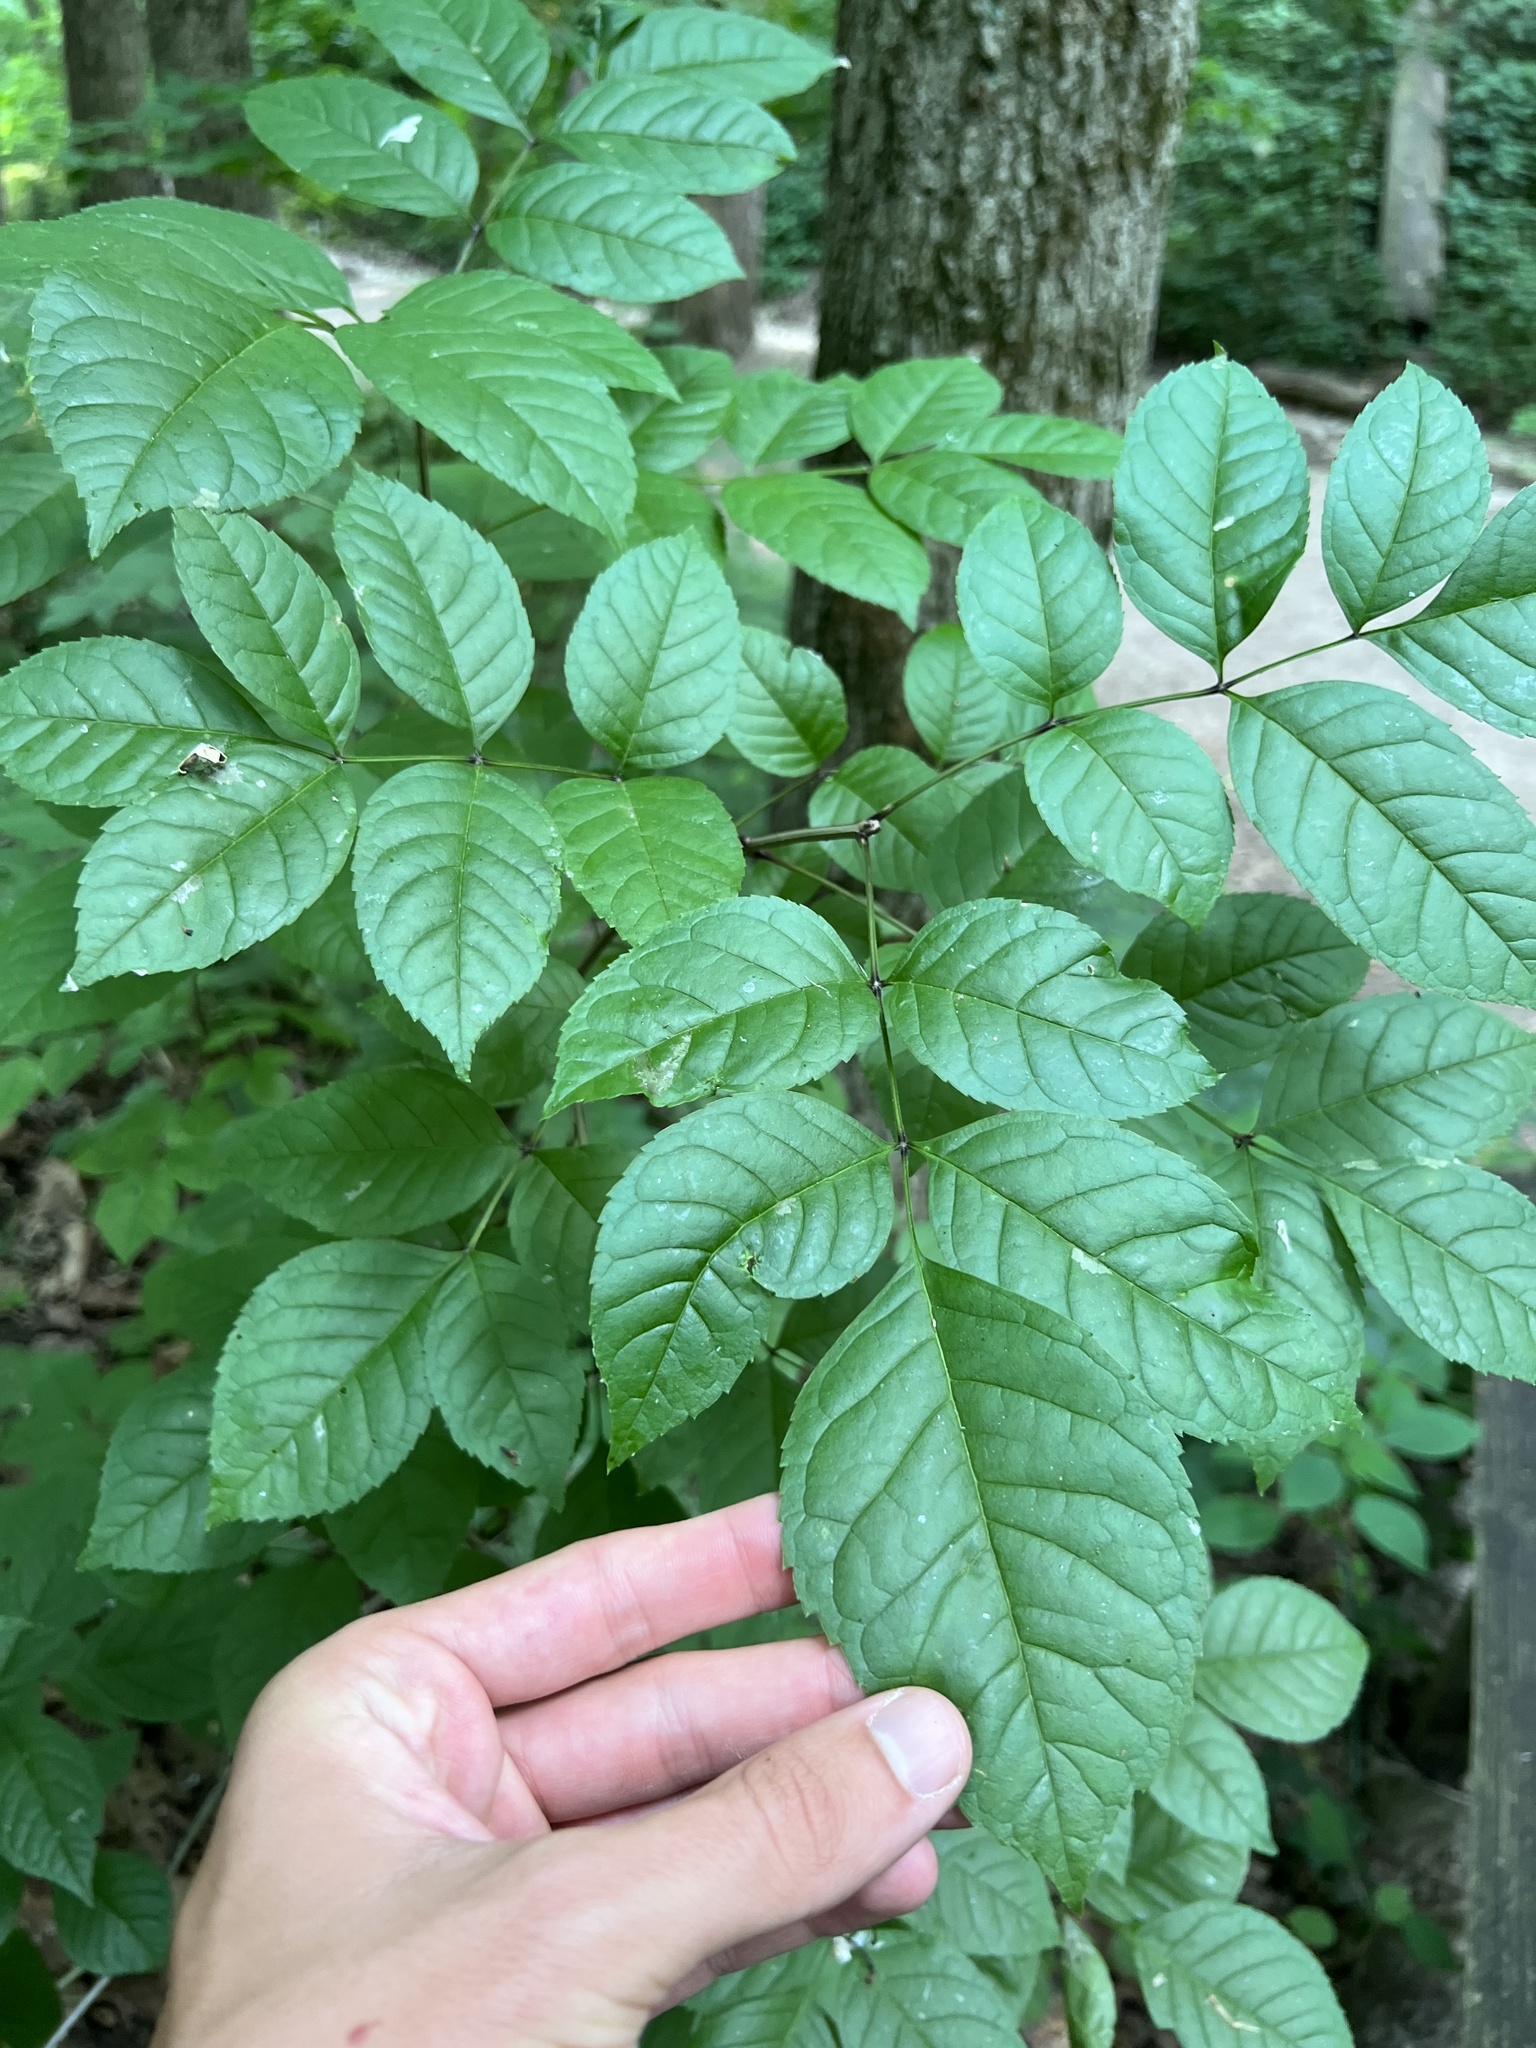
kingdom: Plantae
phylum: Tracheophyta
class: Magnoliopsida
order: Lamiales
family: Oleaceae
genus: Fraxinus
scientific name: Fraxinus quadrangulata
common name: Blue ash
